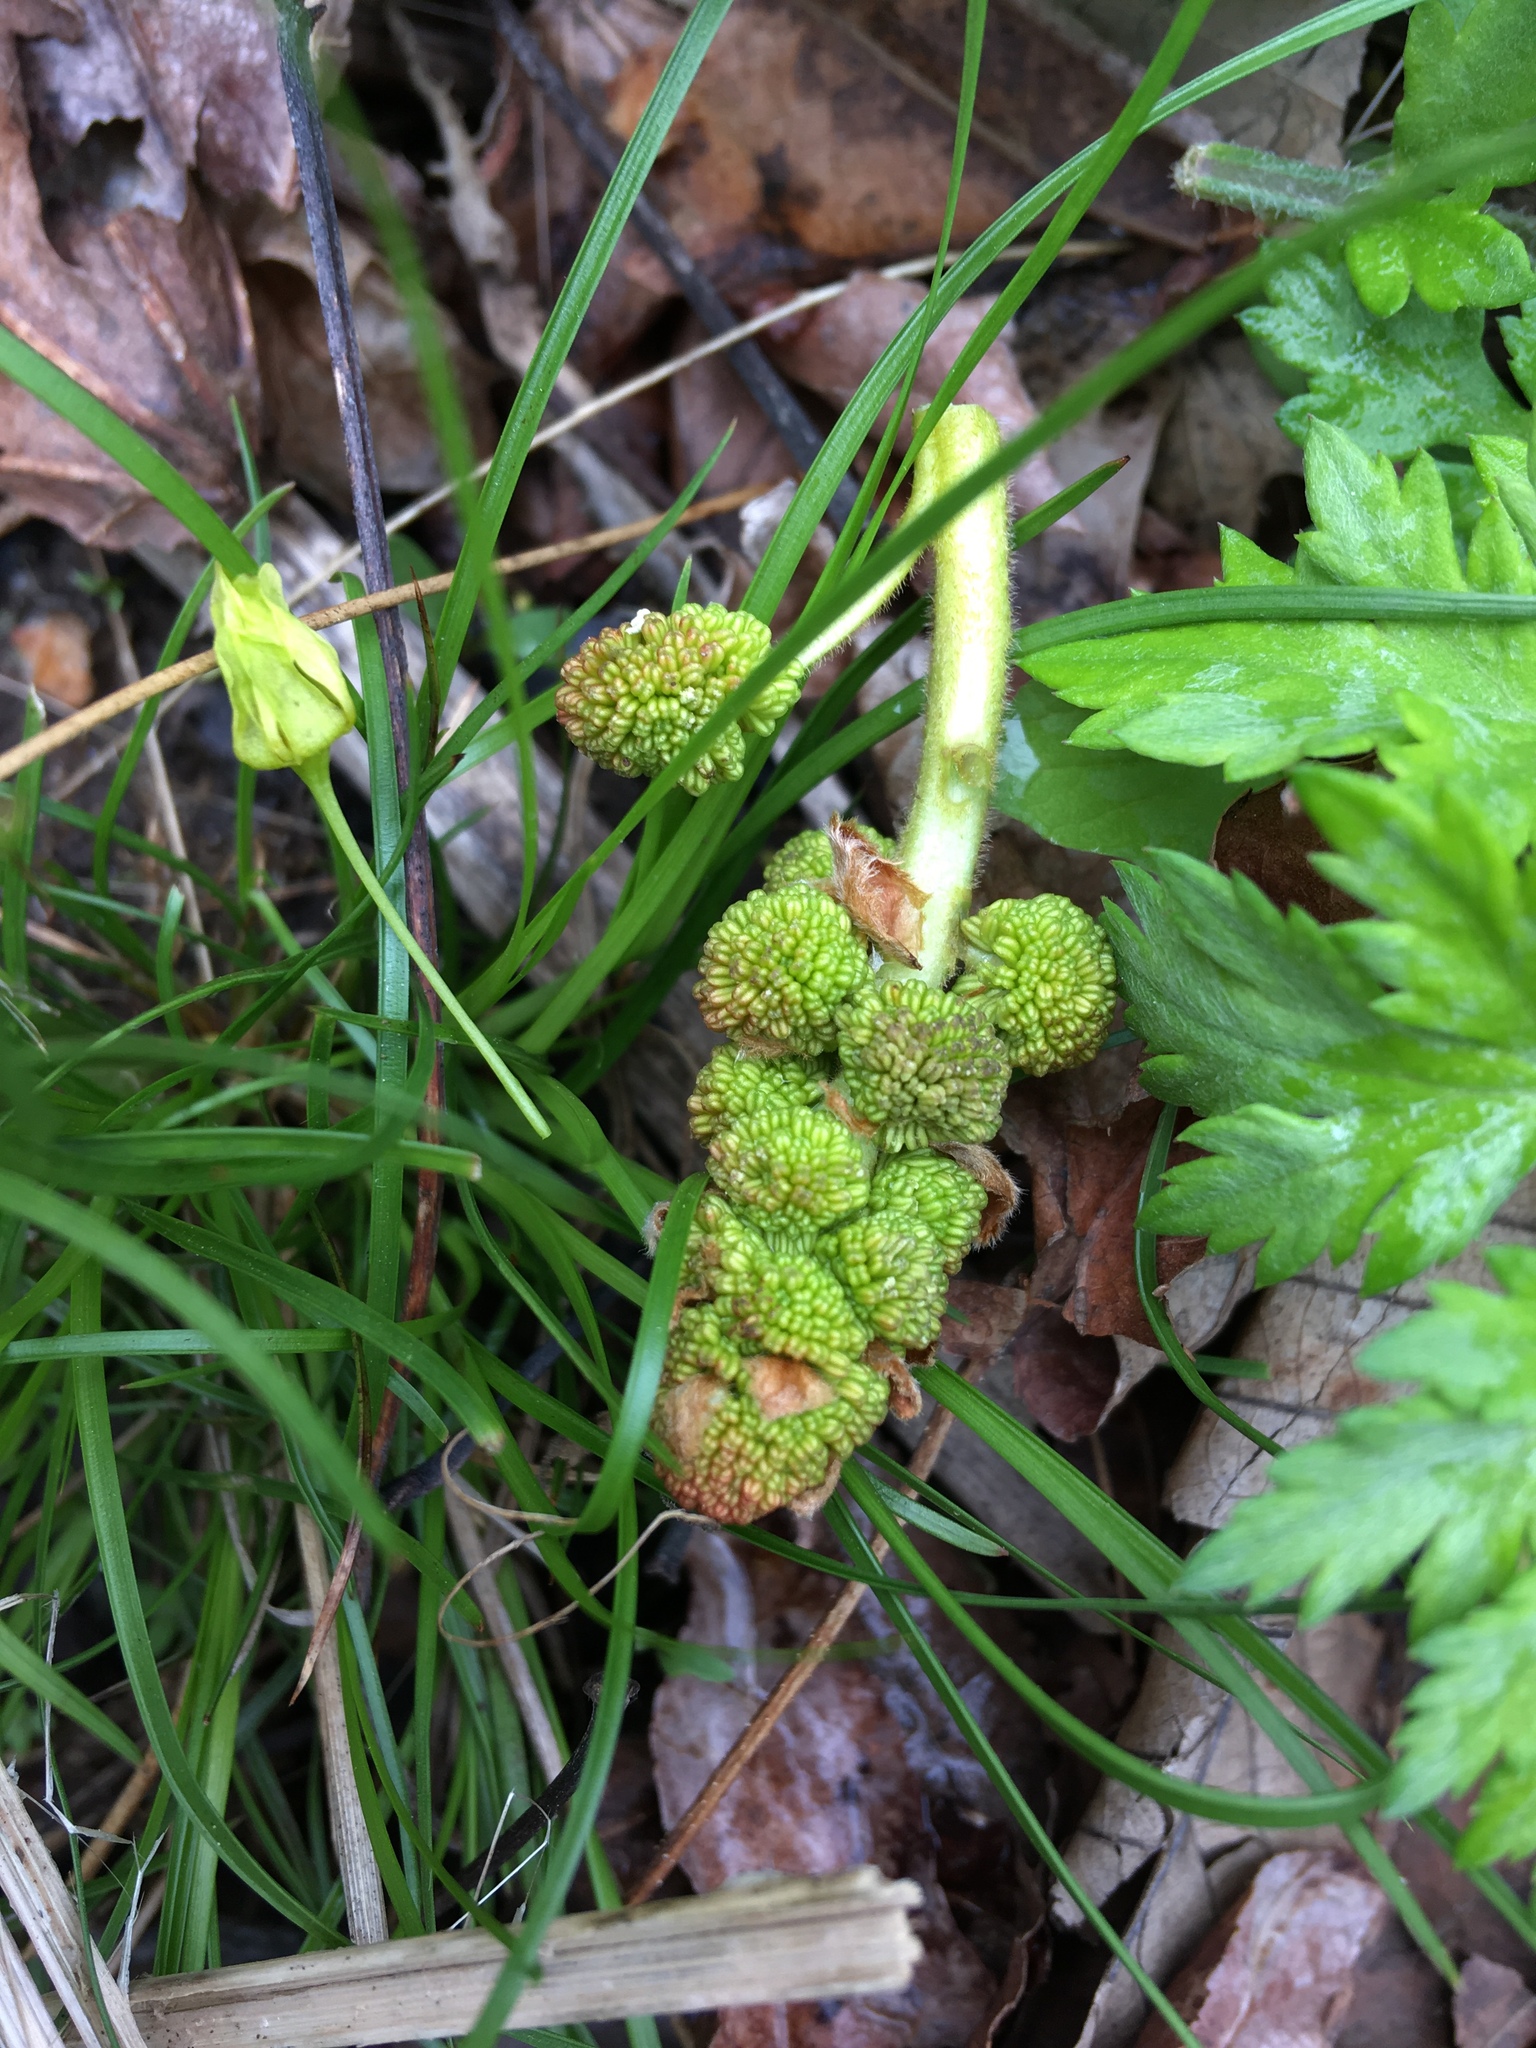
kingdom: Plantae
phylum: Tracheophyta
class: Magnoliopsida
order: Saxifragales
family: Altingiaceae
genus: Liquidambar
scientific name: Liquidambar styraciflua
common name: Sweet gum
